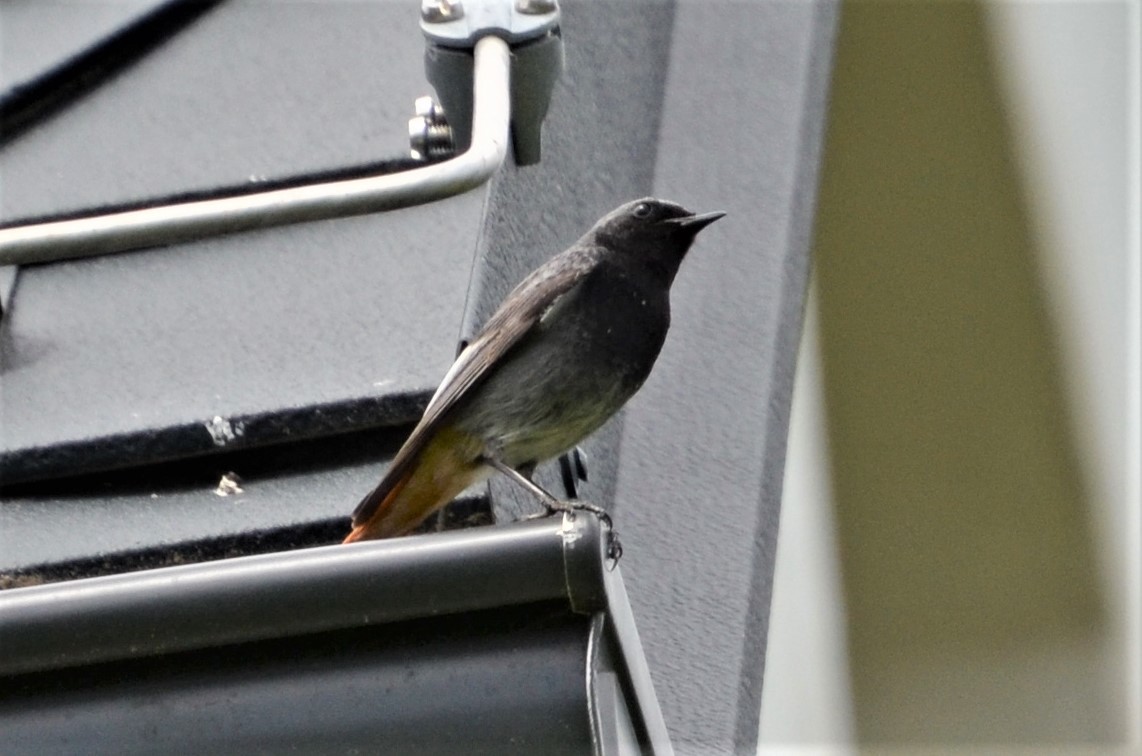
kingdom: Animalia
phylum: Chordata
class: Aves
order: Passeriformes
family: Muscicapidae
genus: Phoenicurus
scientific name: Phoenicurus ochruros
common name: Black redstart
